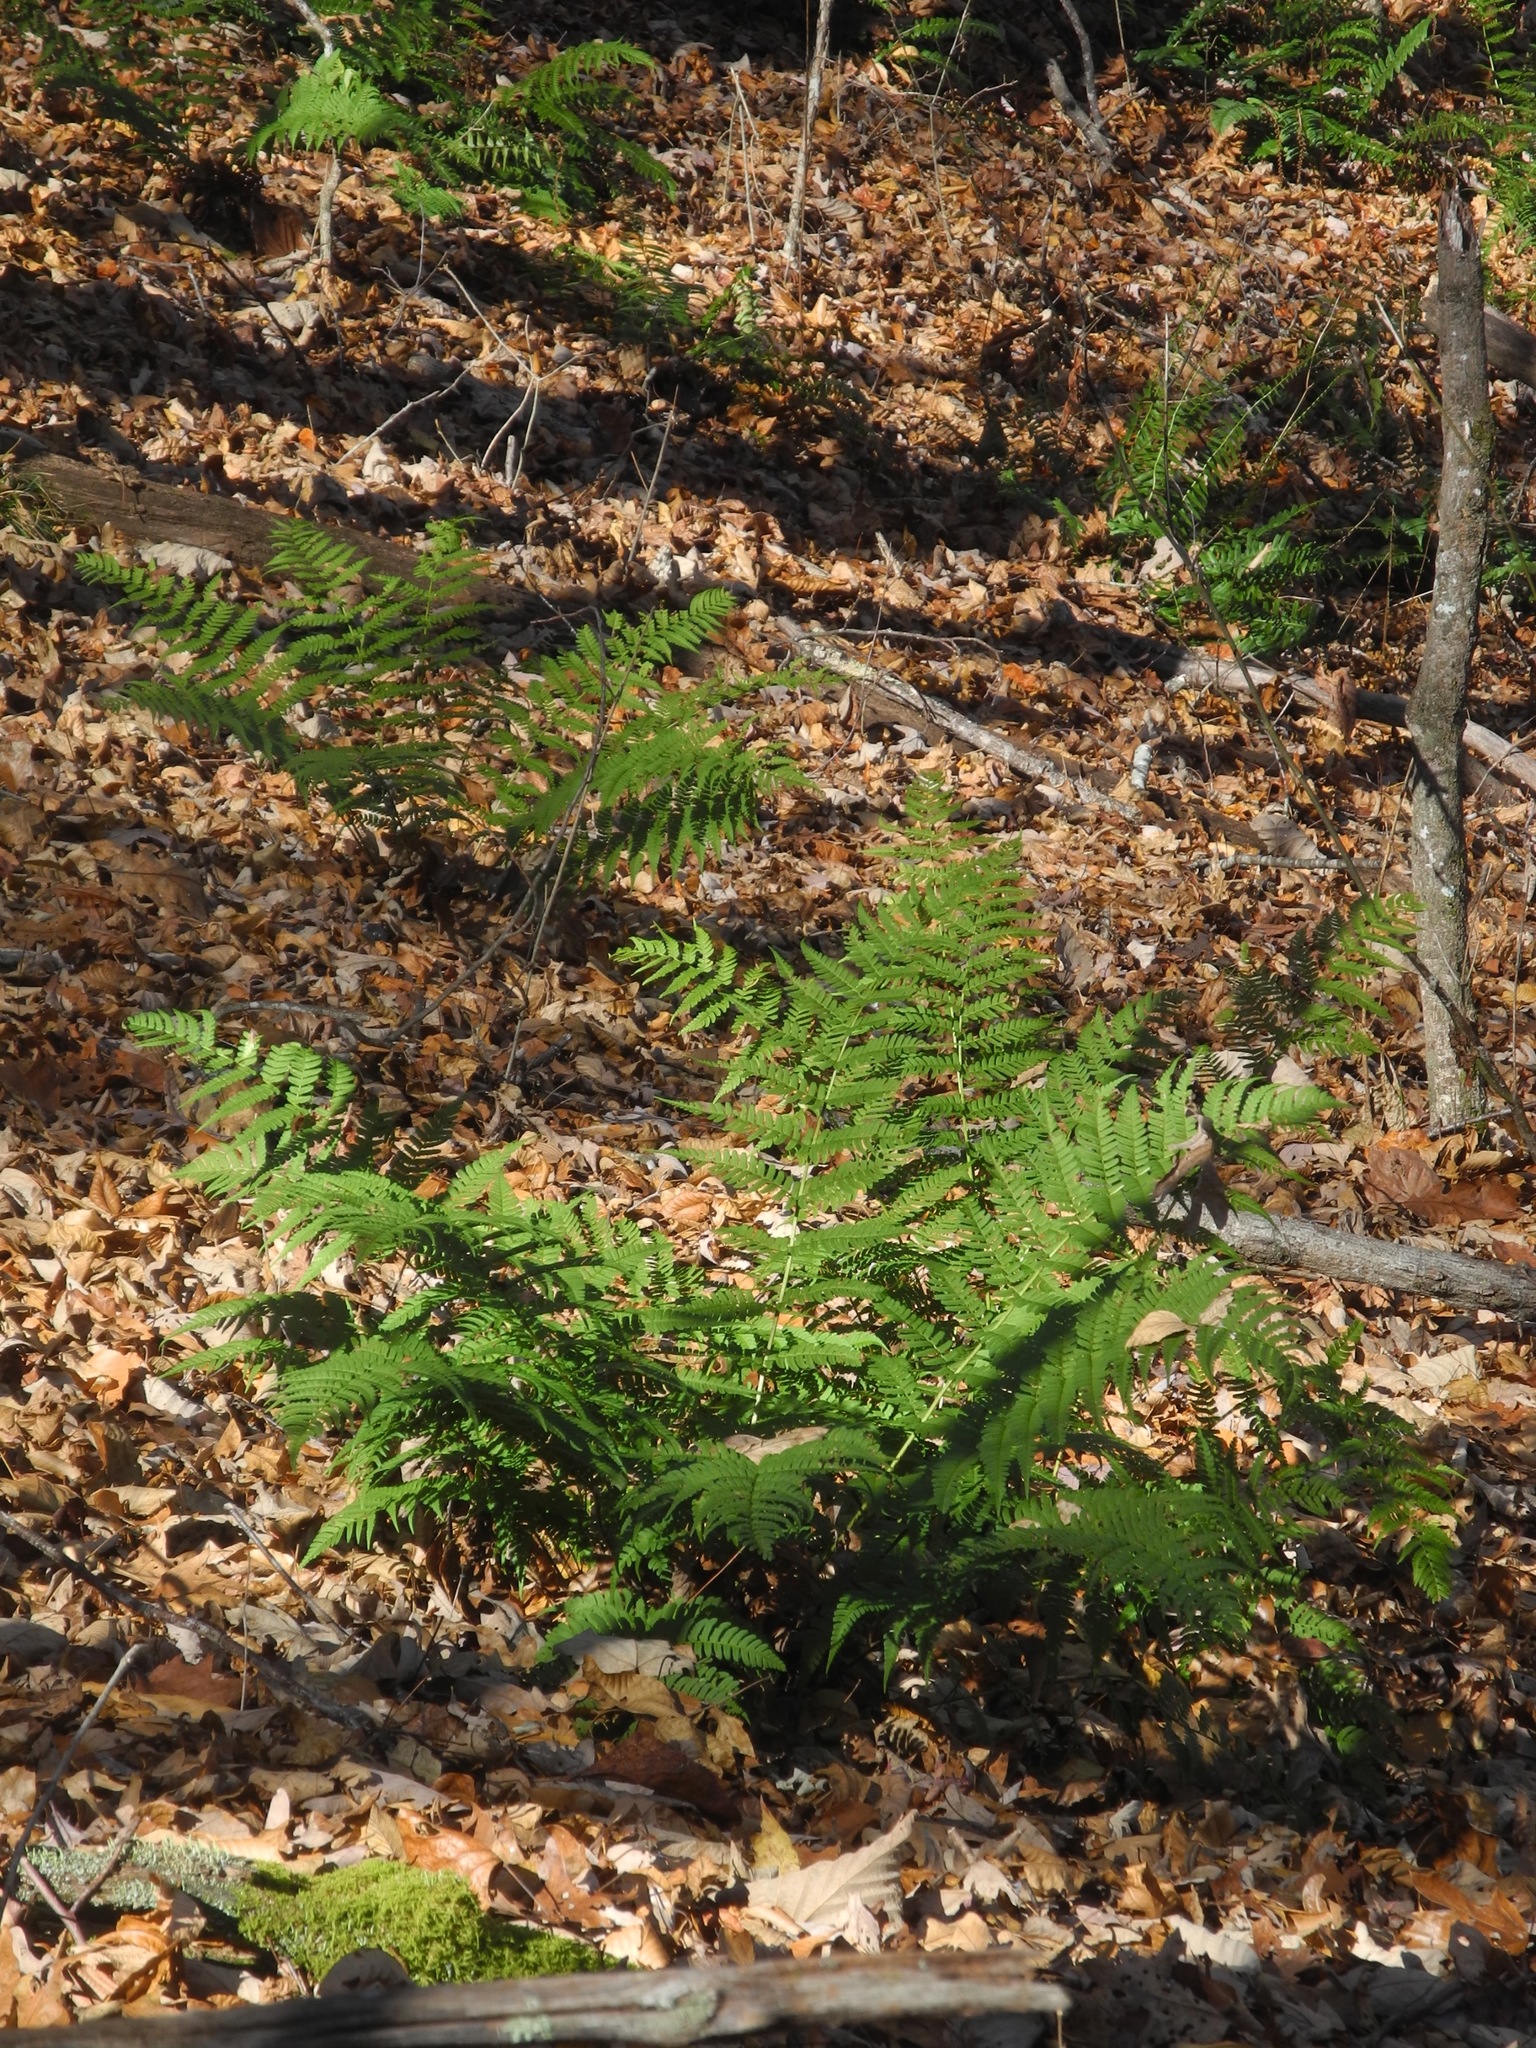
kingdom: Plantae
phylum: Tracheophyta
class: Polypodiopsida
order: Polypodiales
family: Dryopteridaceae
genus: Dryopteris
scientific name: Dryopteris marginalis
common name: Marginal wood fern
